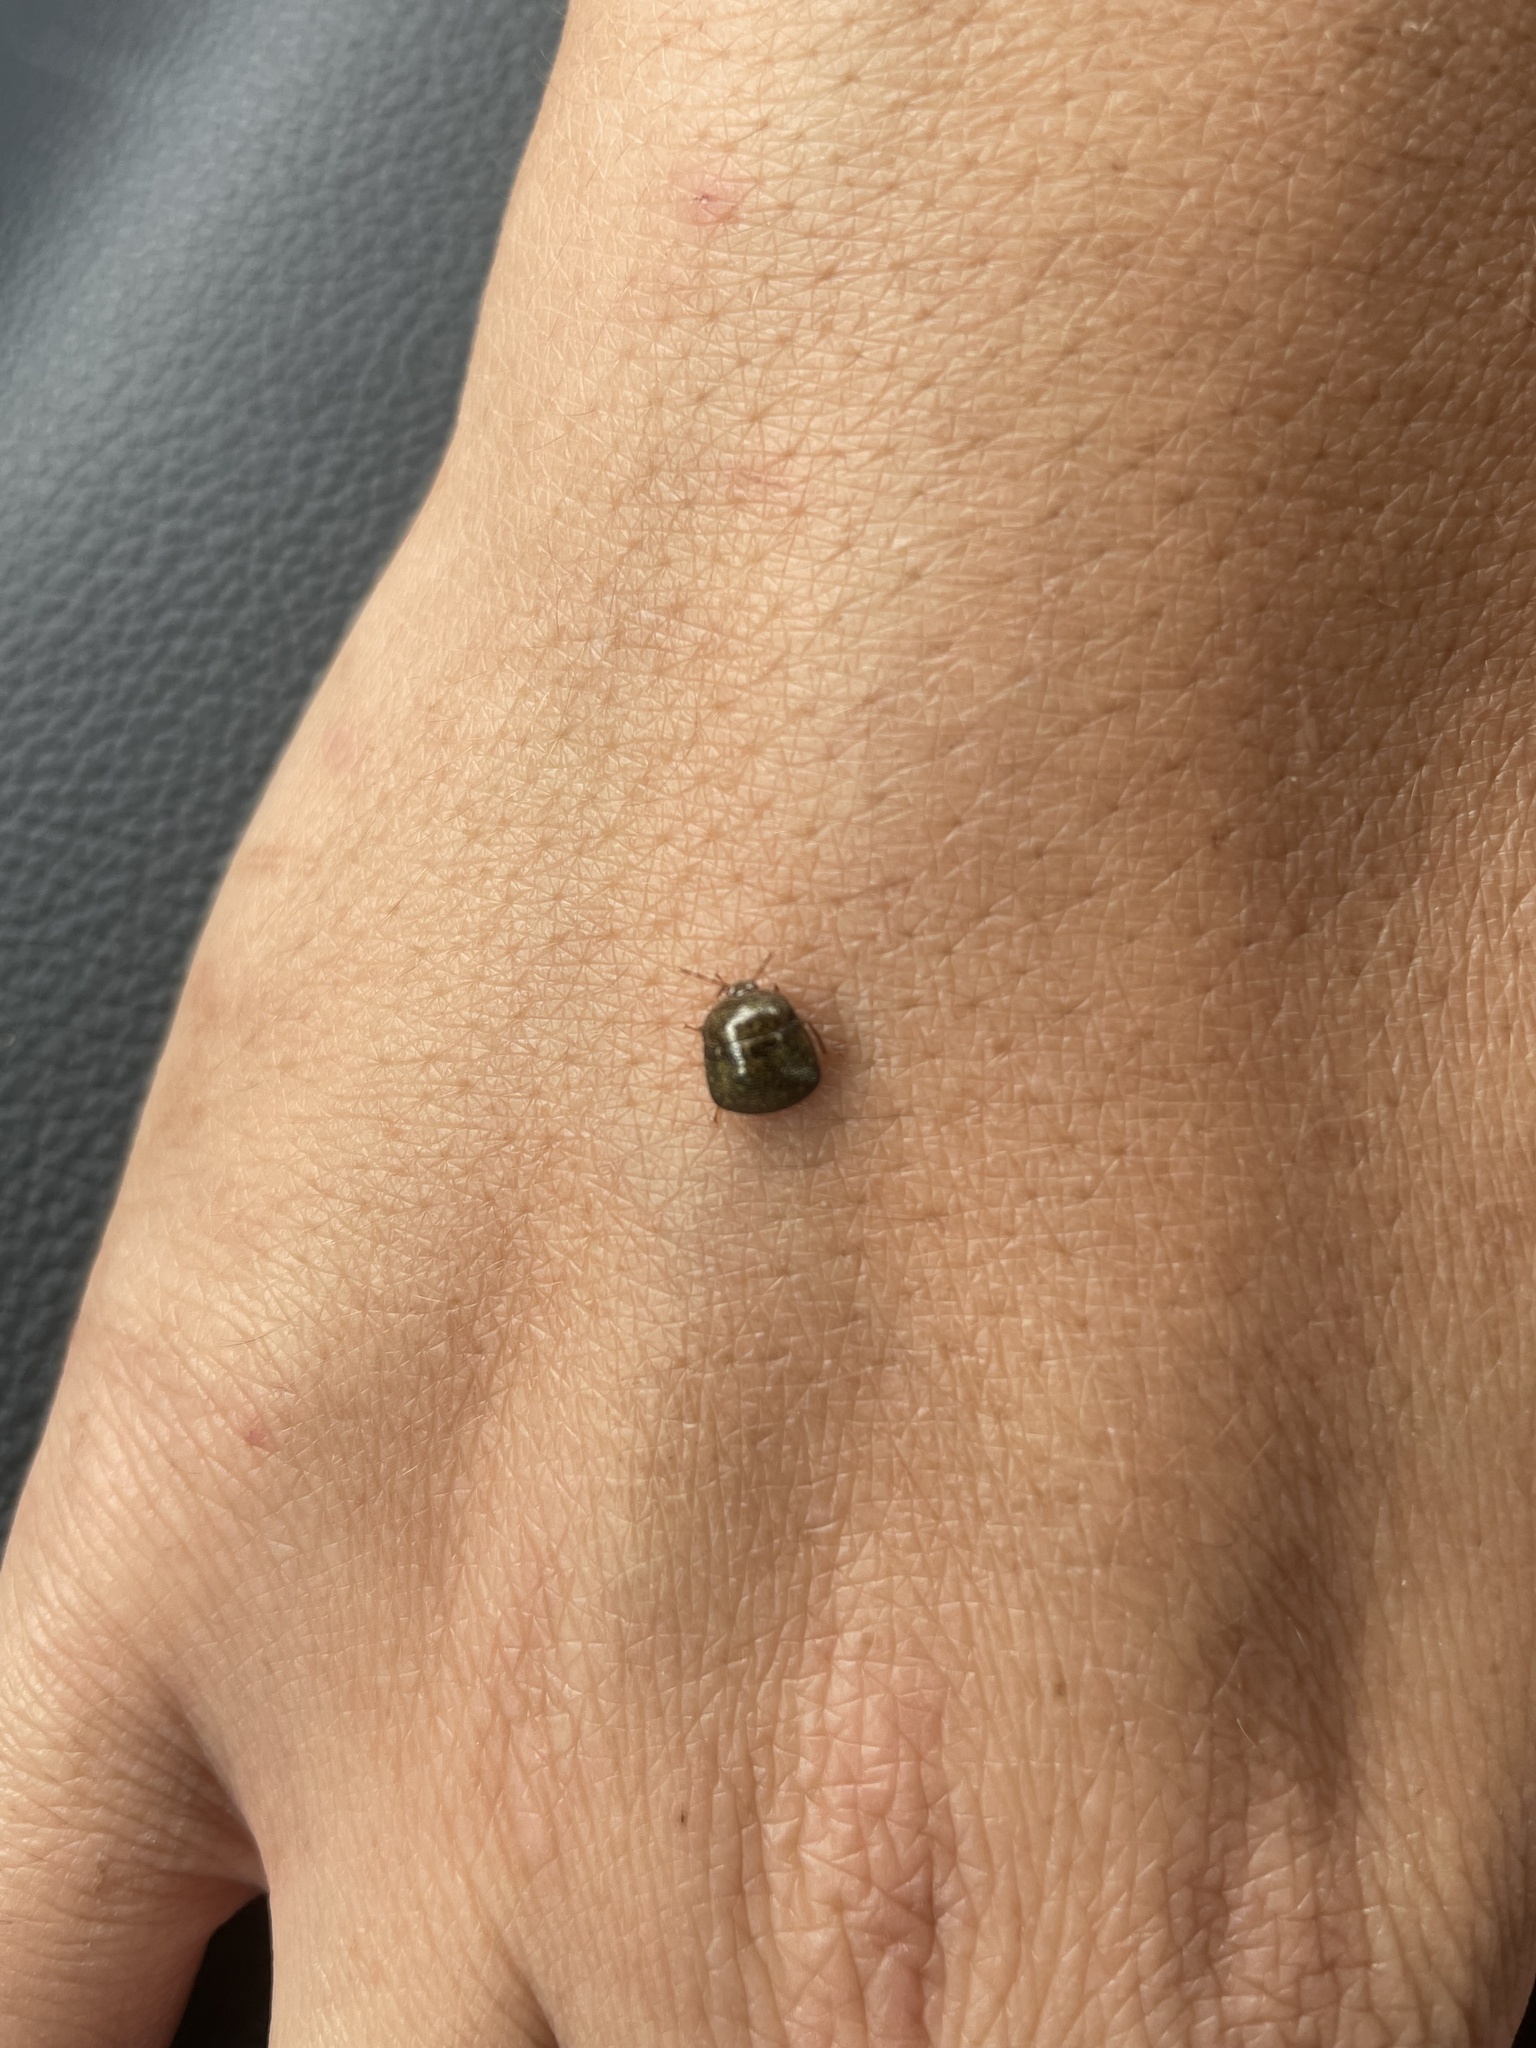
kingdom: Animalia
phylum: Arthropoda
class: Insecta
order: Hemiptera
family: Plataspidae
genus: Megacopta
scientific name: Megacopta cribraria
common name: Bean plataspid
